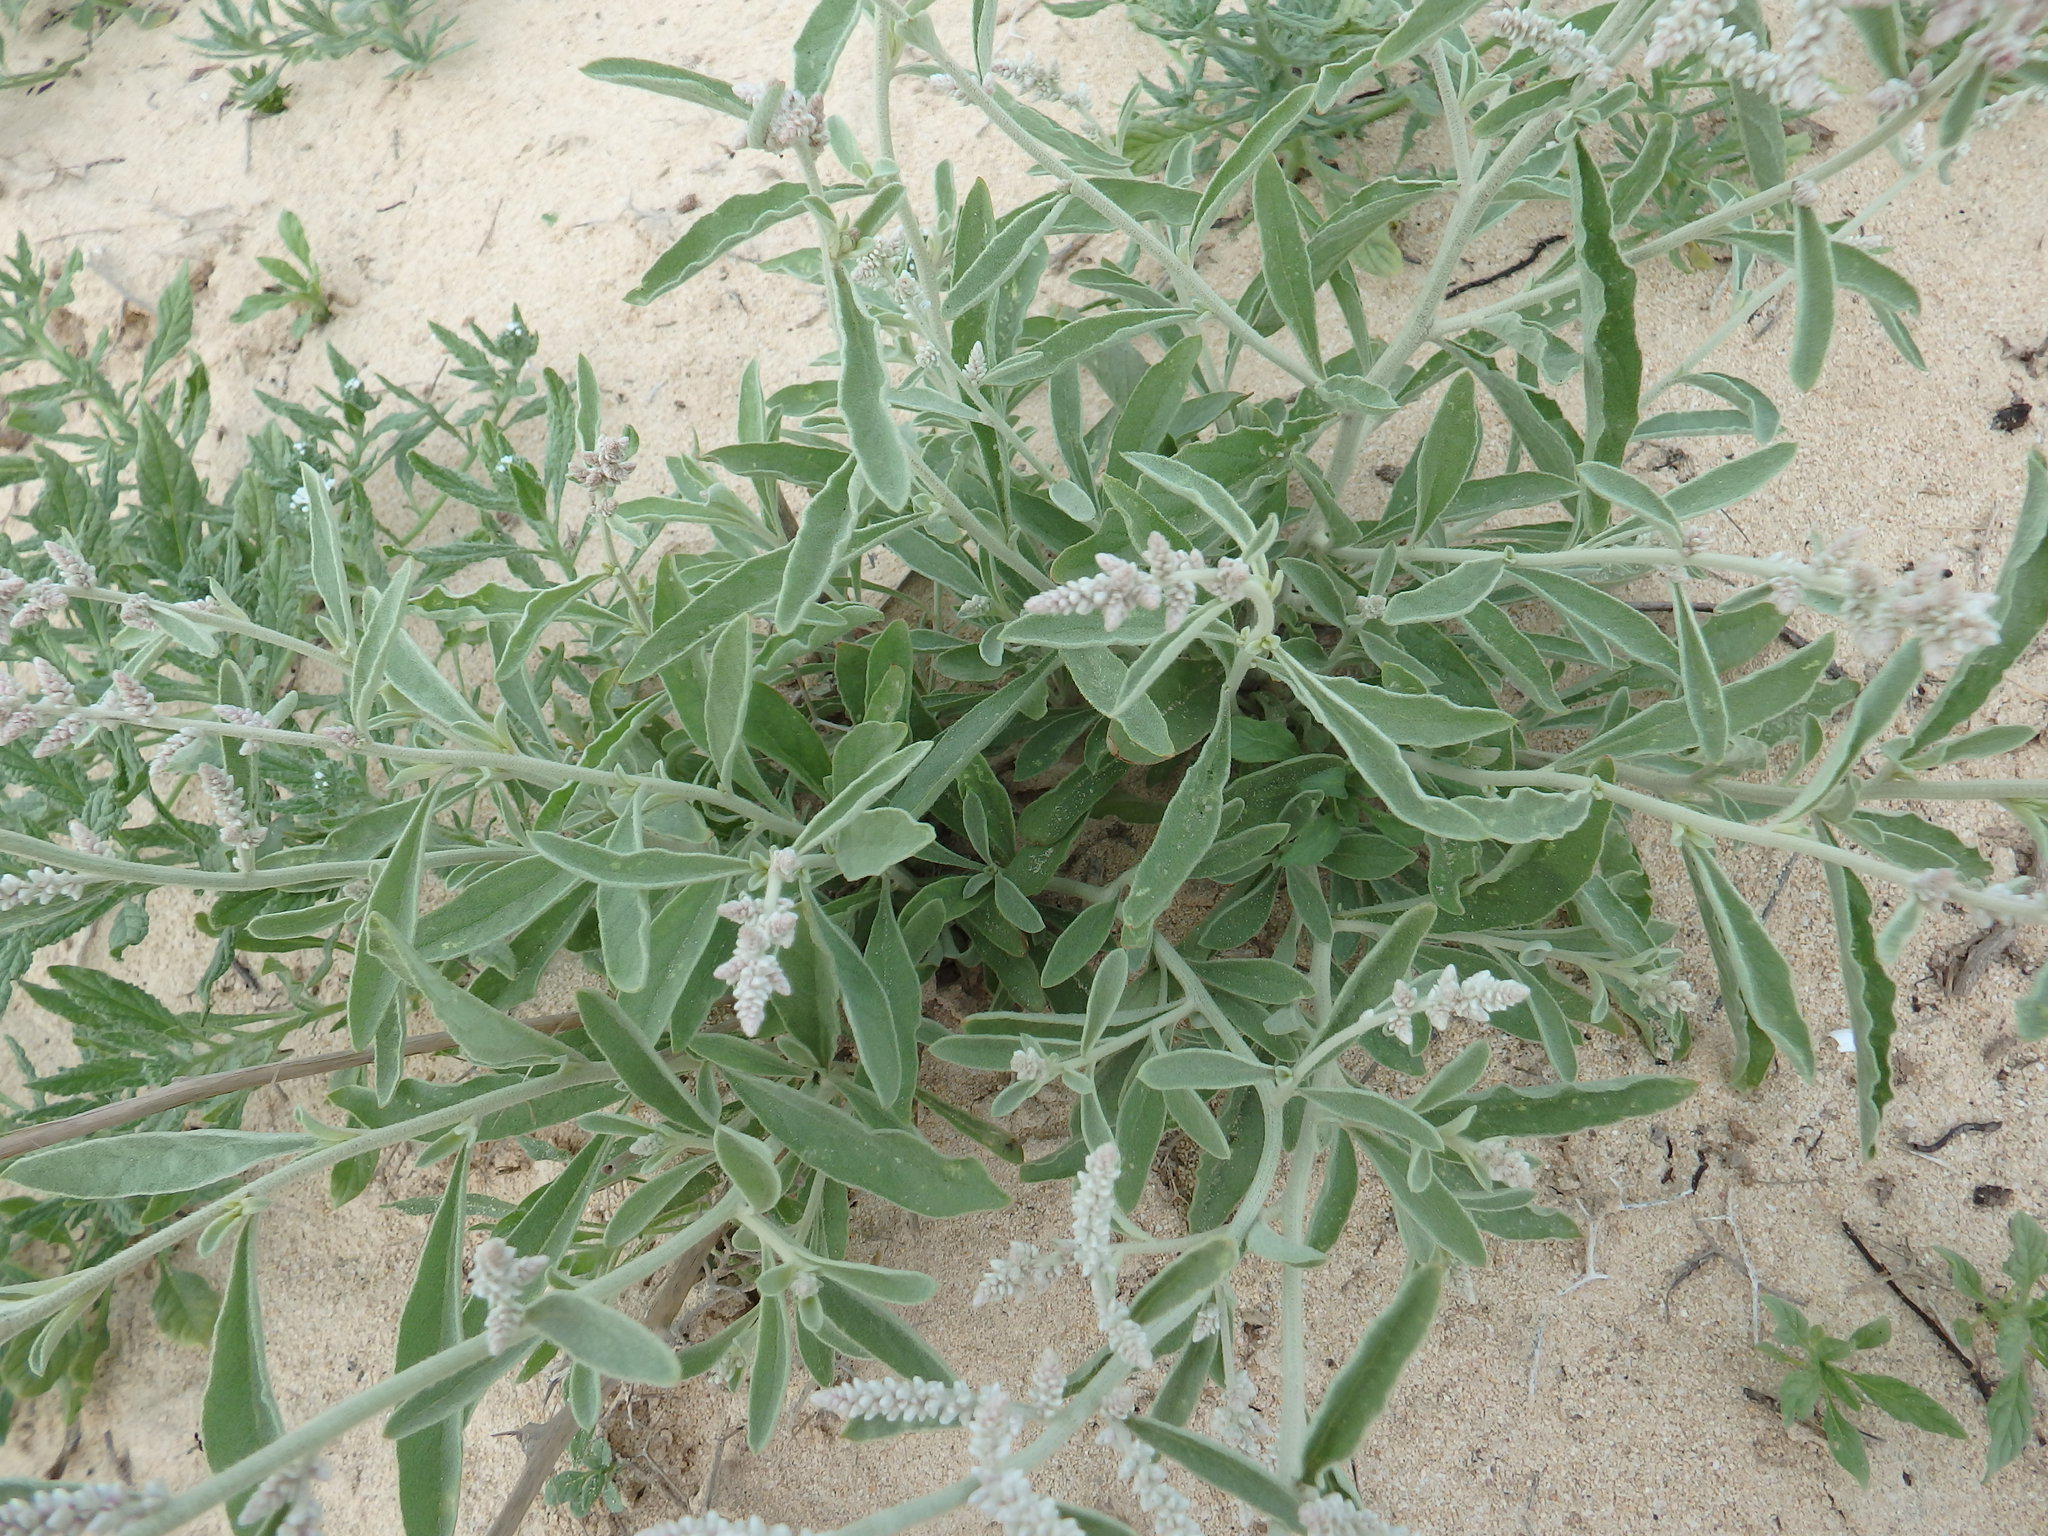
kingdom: Plantae
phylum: Tracheophyta
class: Magnoliopsida
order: Caryophyllales
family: Amaranthaceae
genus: Aerva
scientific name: Aerva javanica
